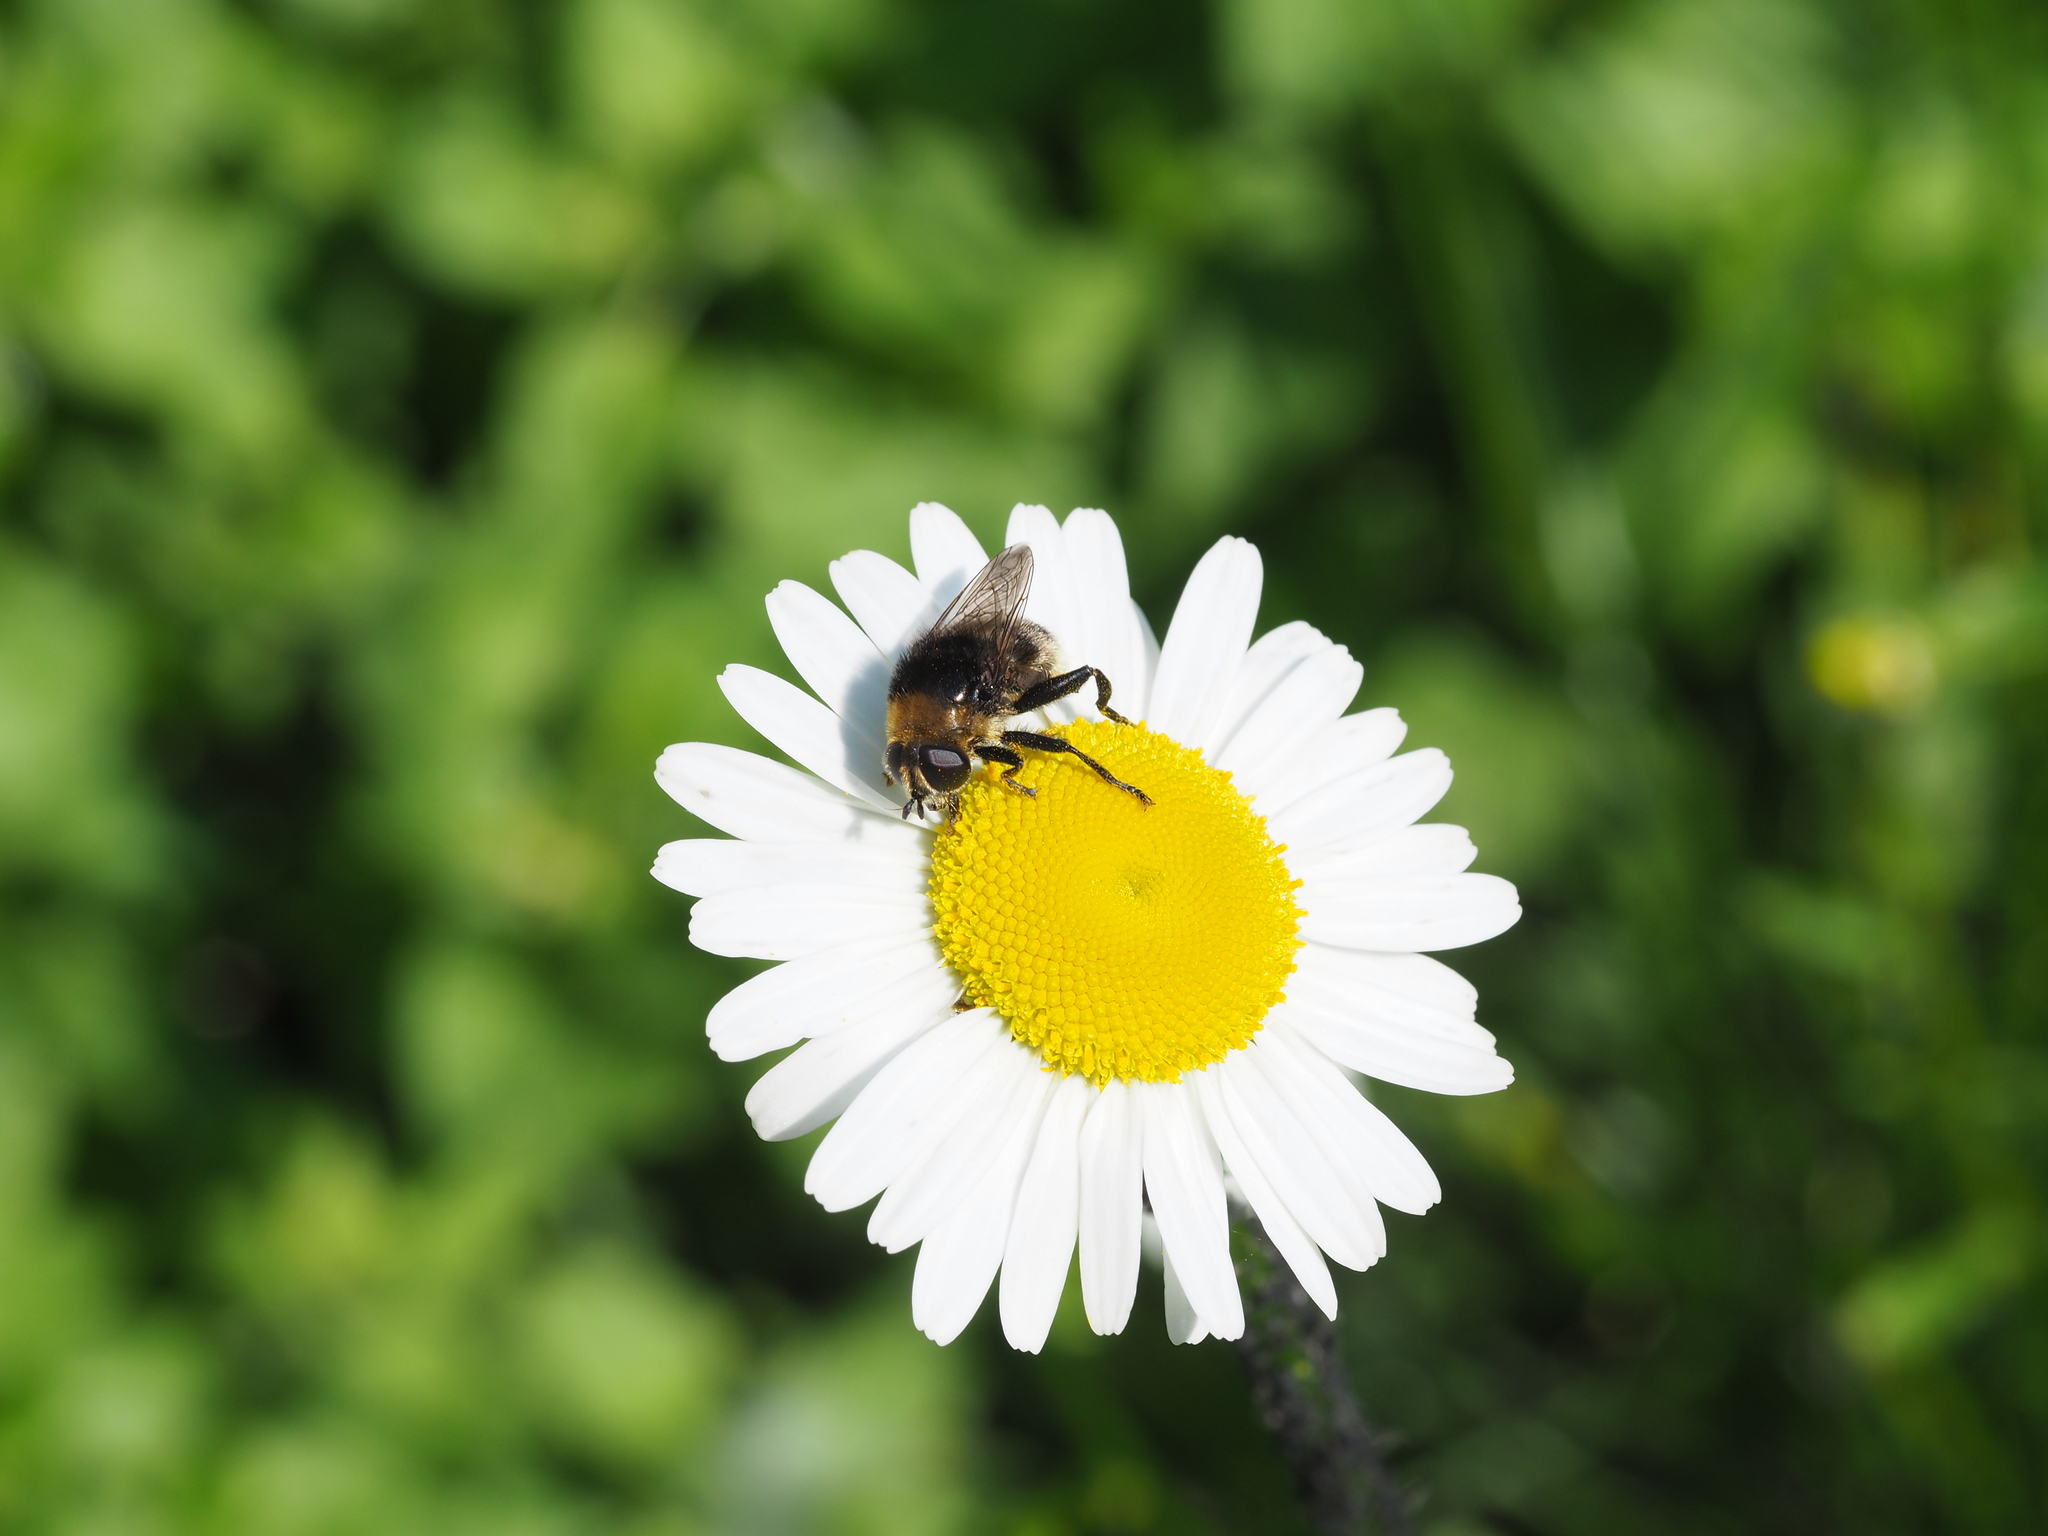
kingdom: Animalia
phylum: Arthropoda
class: Insecta
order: Diptera
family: Syrphidae
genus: Merodon
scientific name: Merodon equestris
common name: Greater bulb-fly
